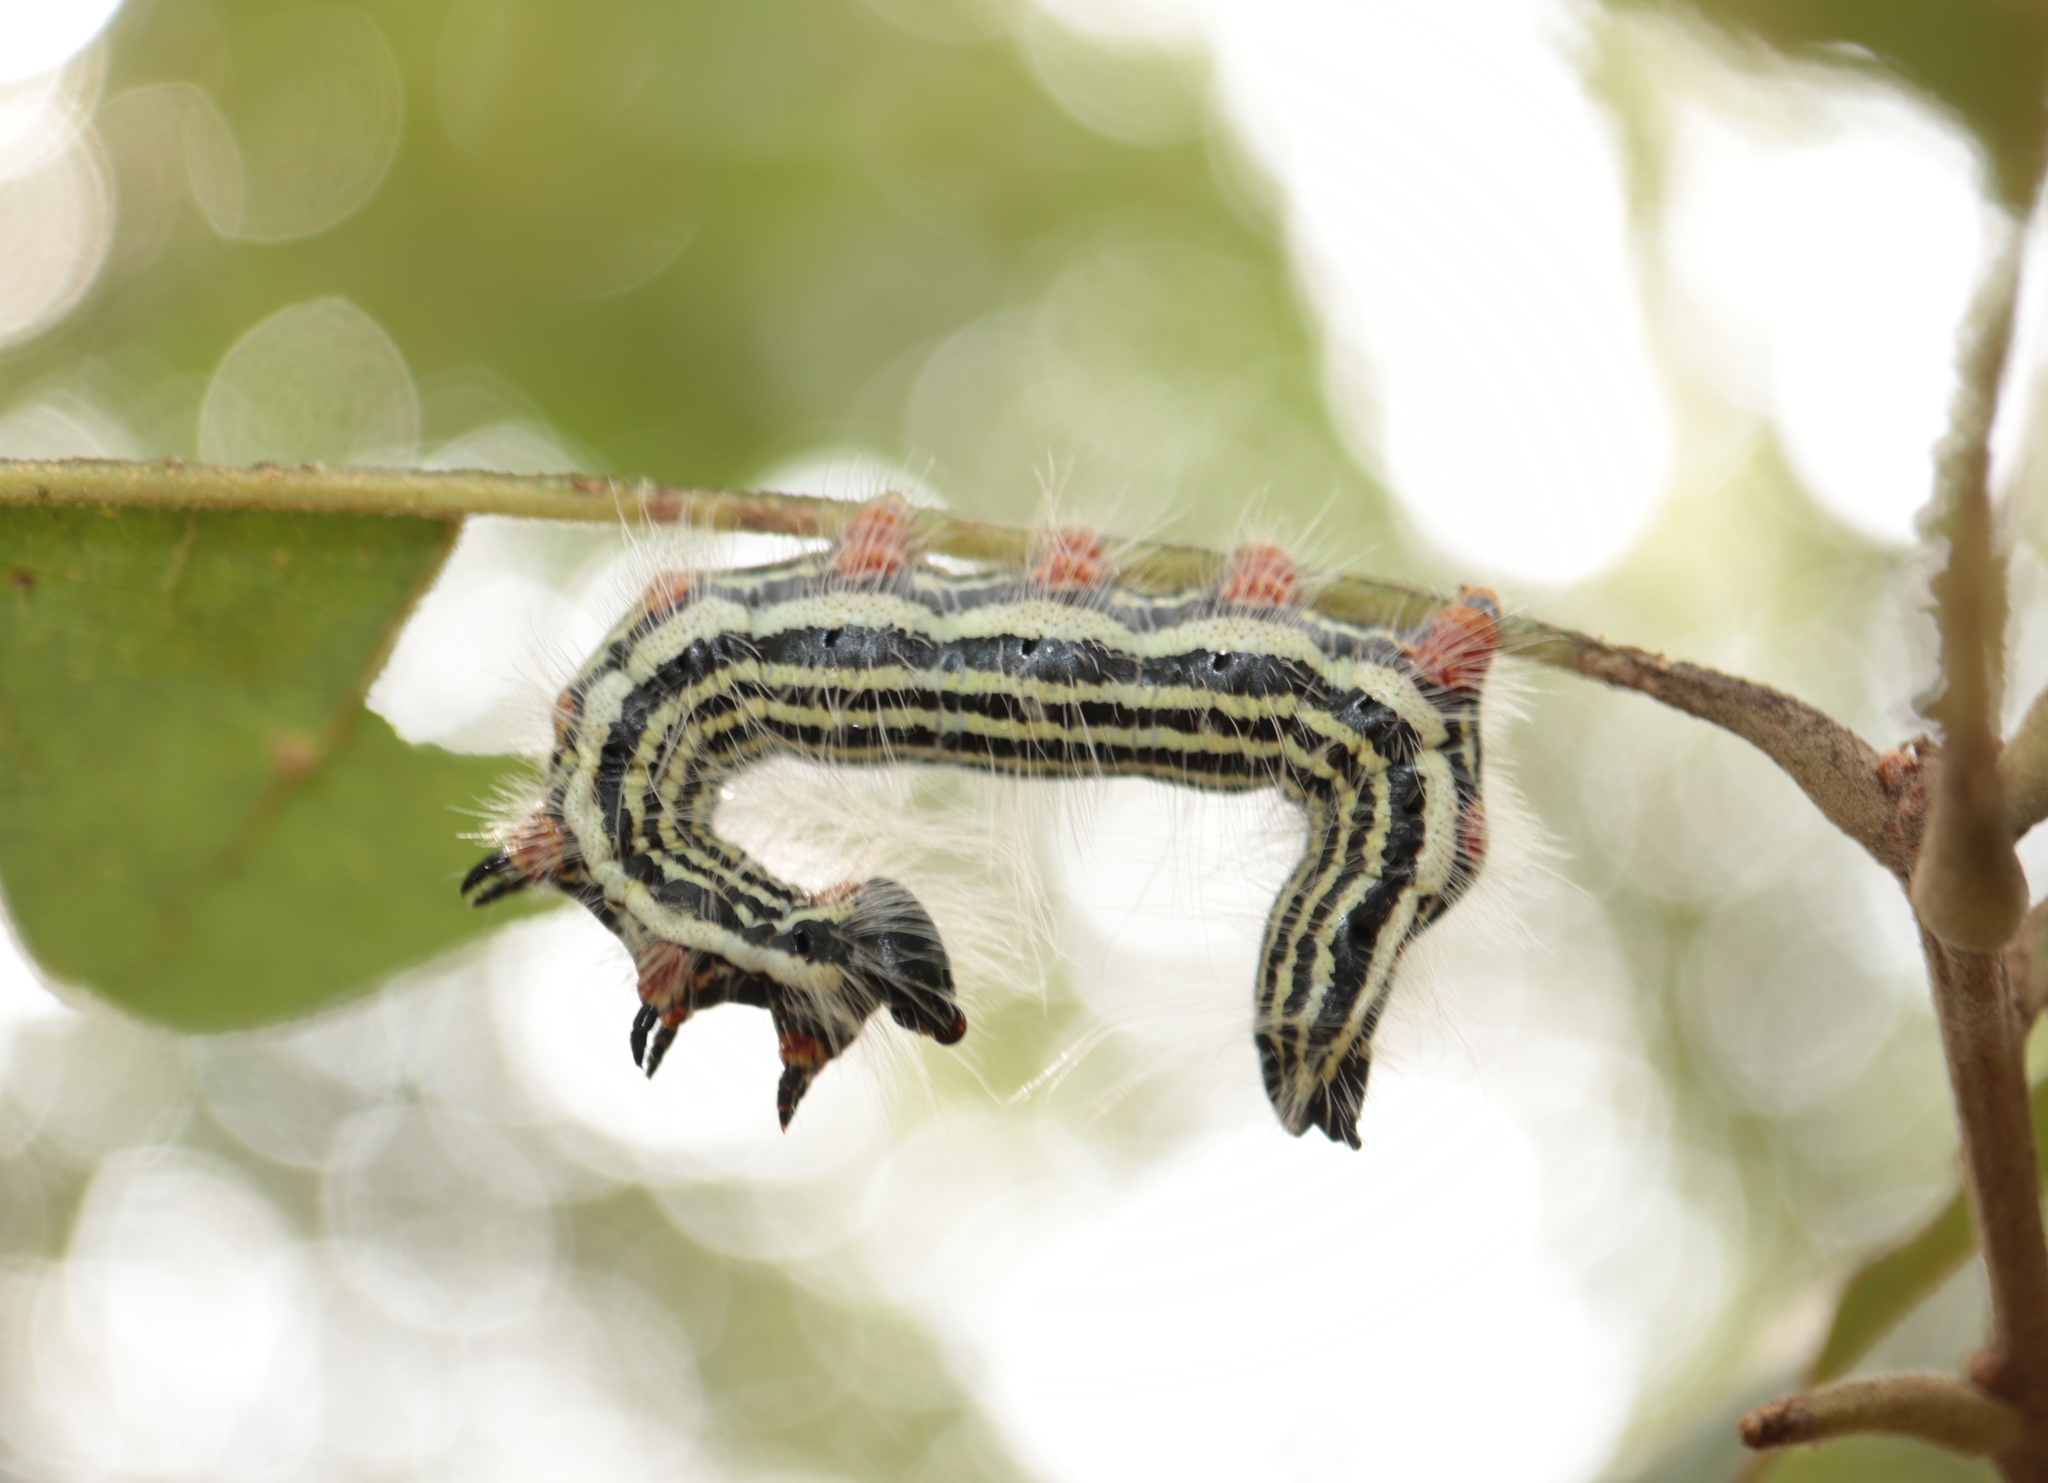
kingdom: Animalia
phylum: Arthropoda
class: Insecta
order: Lepidoptera
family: Notodontidae
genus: Datana
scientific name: Datana contracta
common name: Contracted datana
